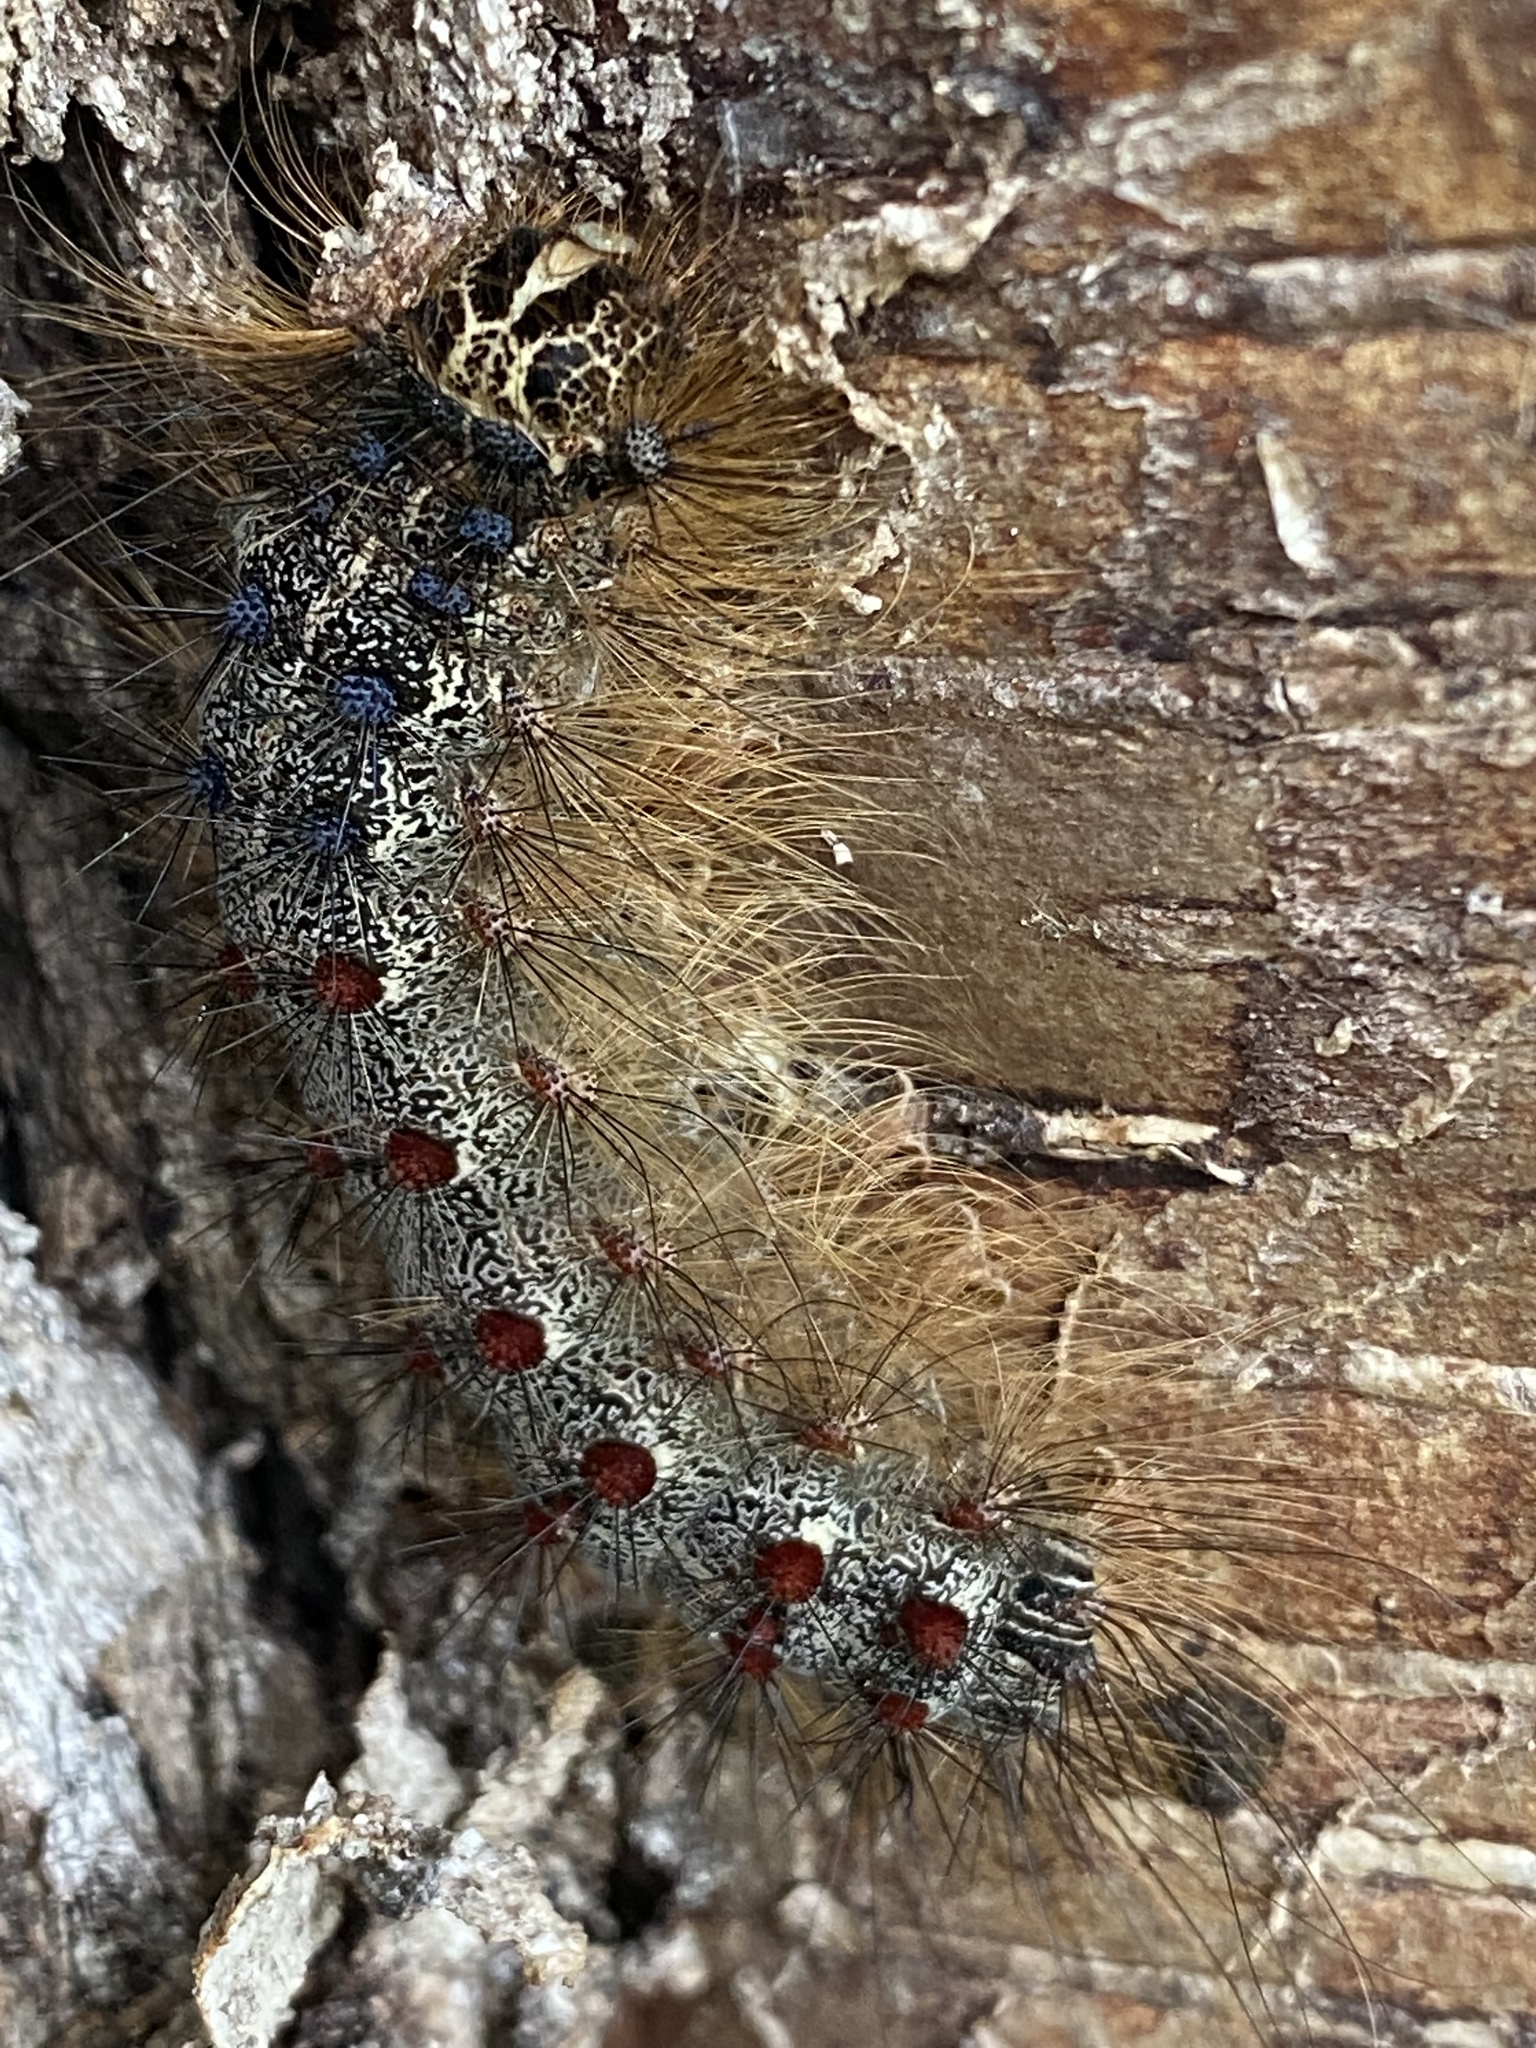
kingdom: Animalia
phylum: Arthropoda
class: Insecta
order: Lepidoptera
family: Erebidae
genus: Lymantria
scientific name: Lymantria dispar
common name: Gypsy moth
